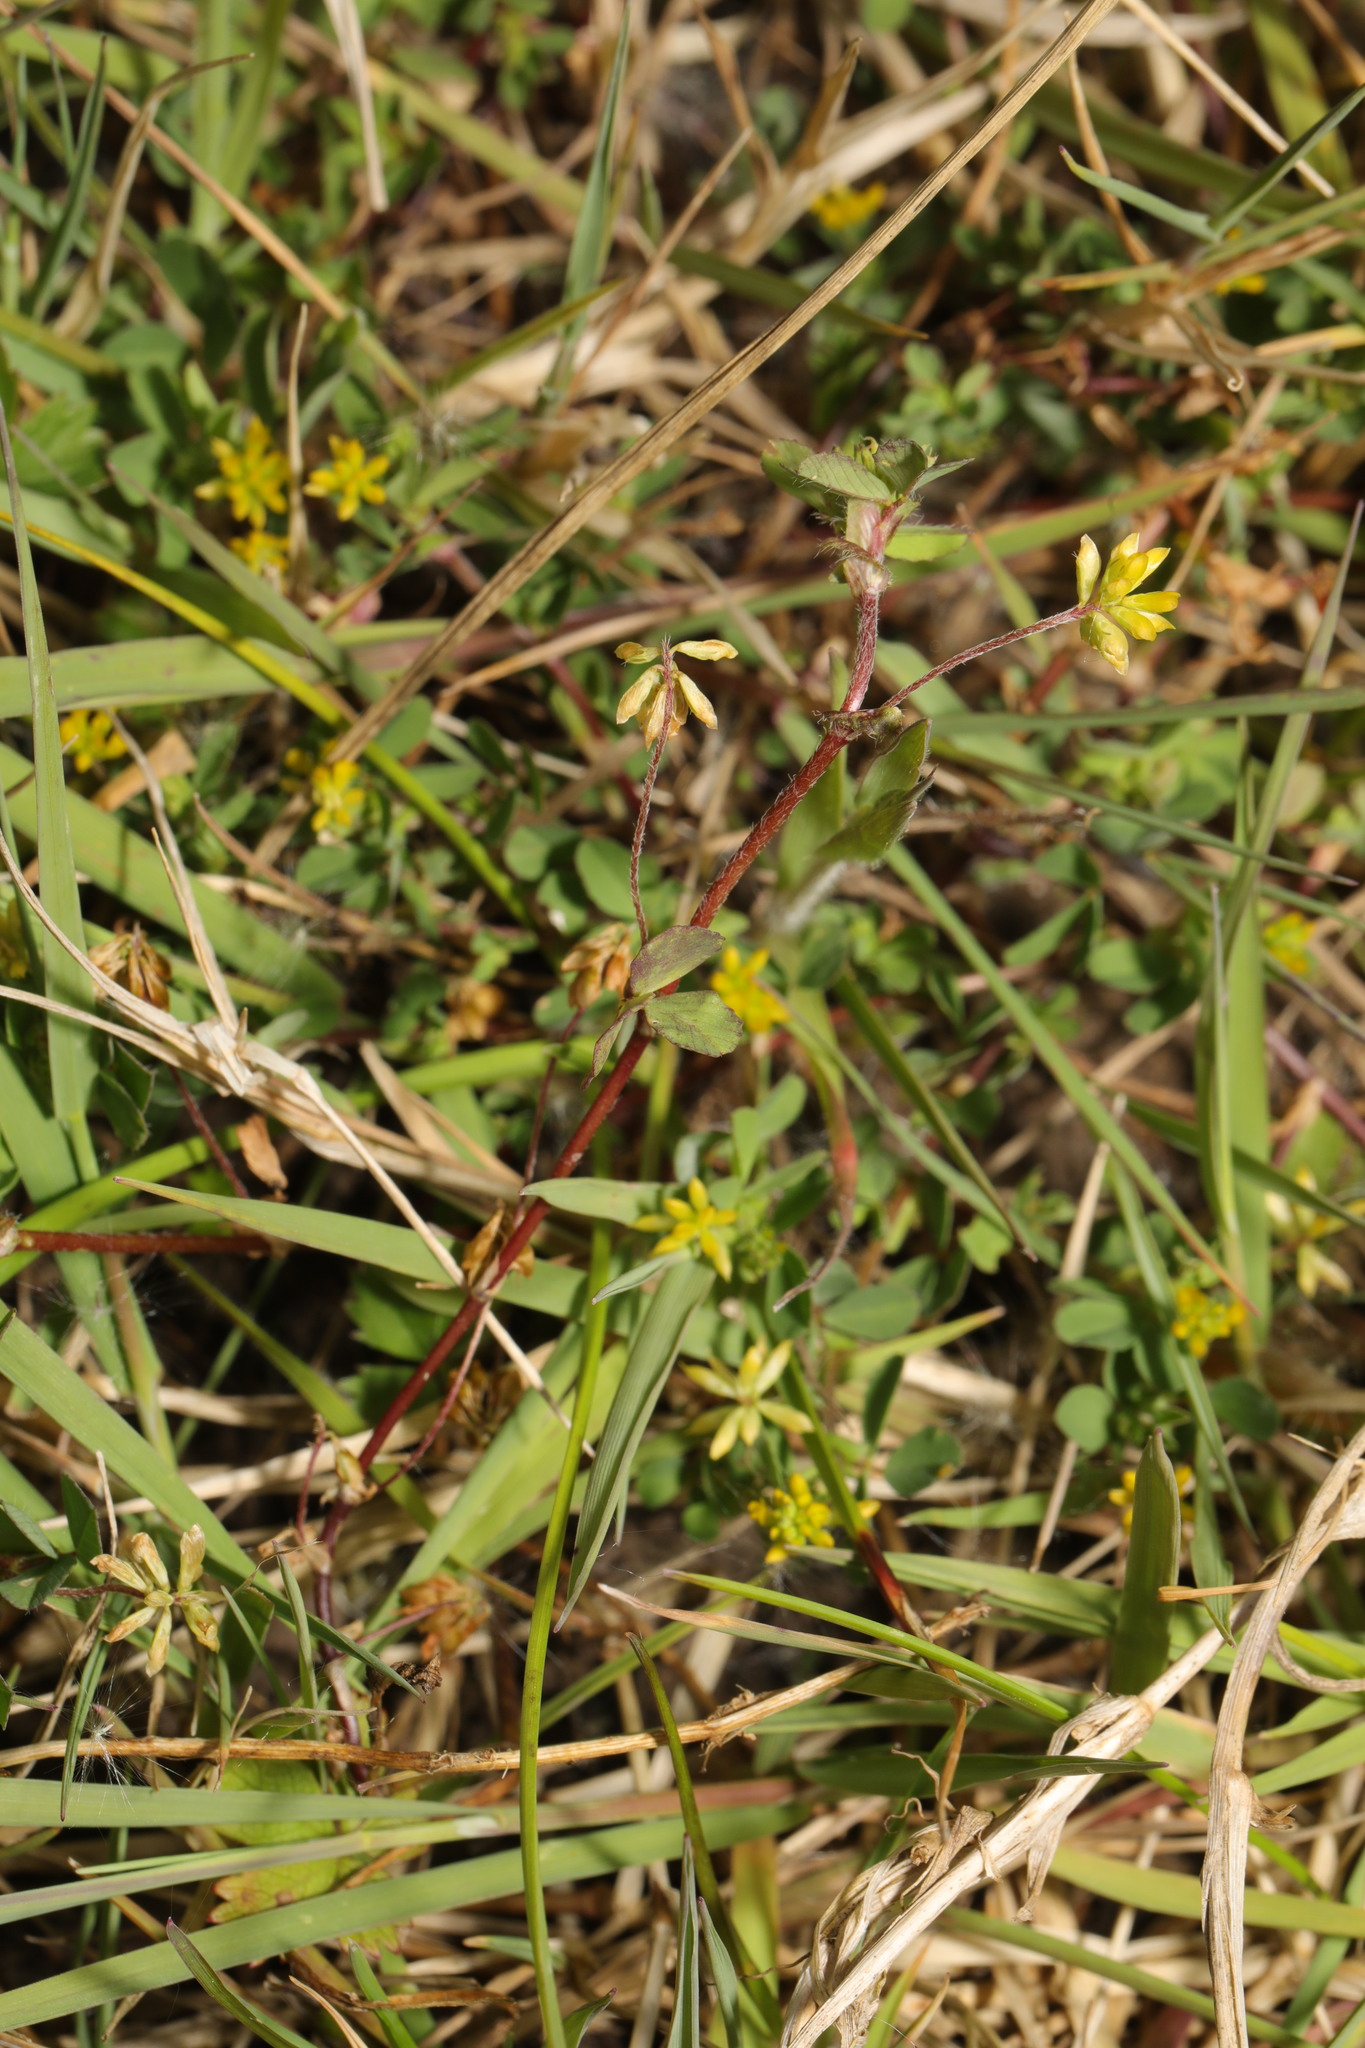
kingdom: Plantae
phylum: Tracheophyta
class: Magnoliopsida
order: Fabales
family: Fabaceae
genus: Trifolium
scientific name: Trifolium dubium
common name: Suckling clover
